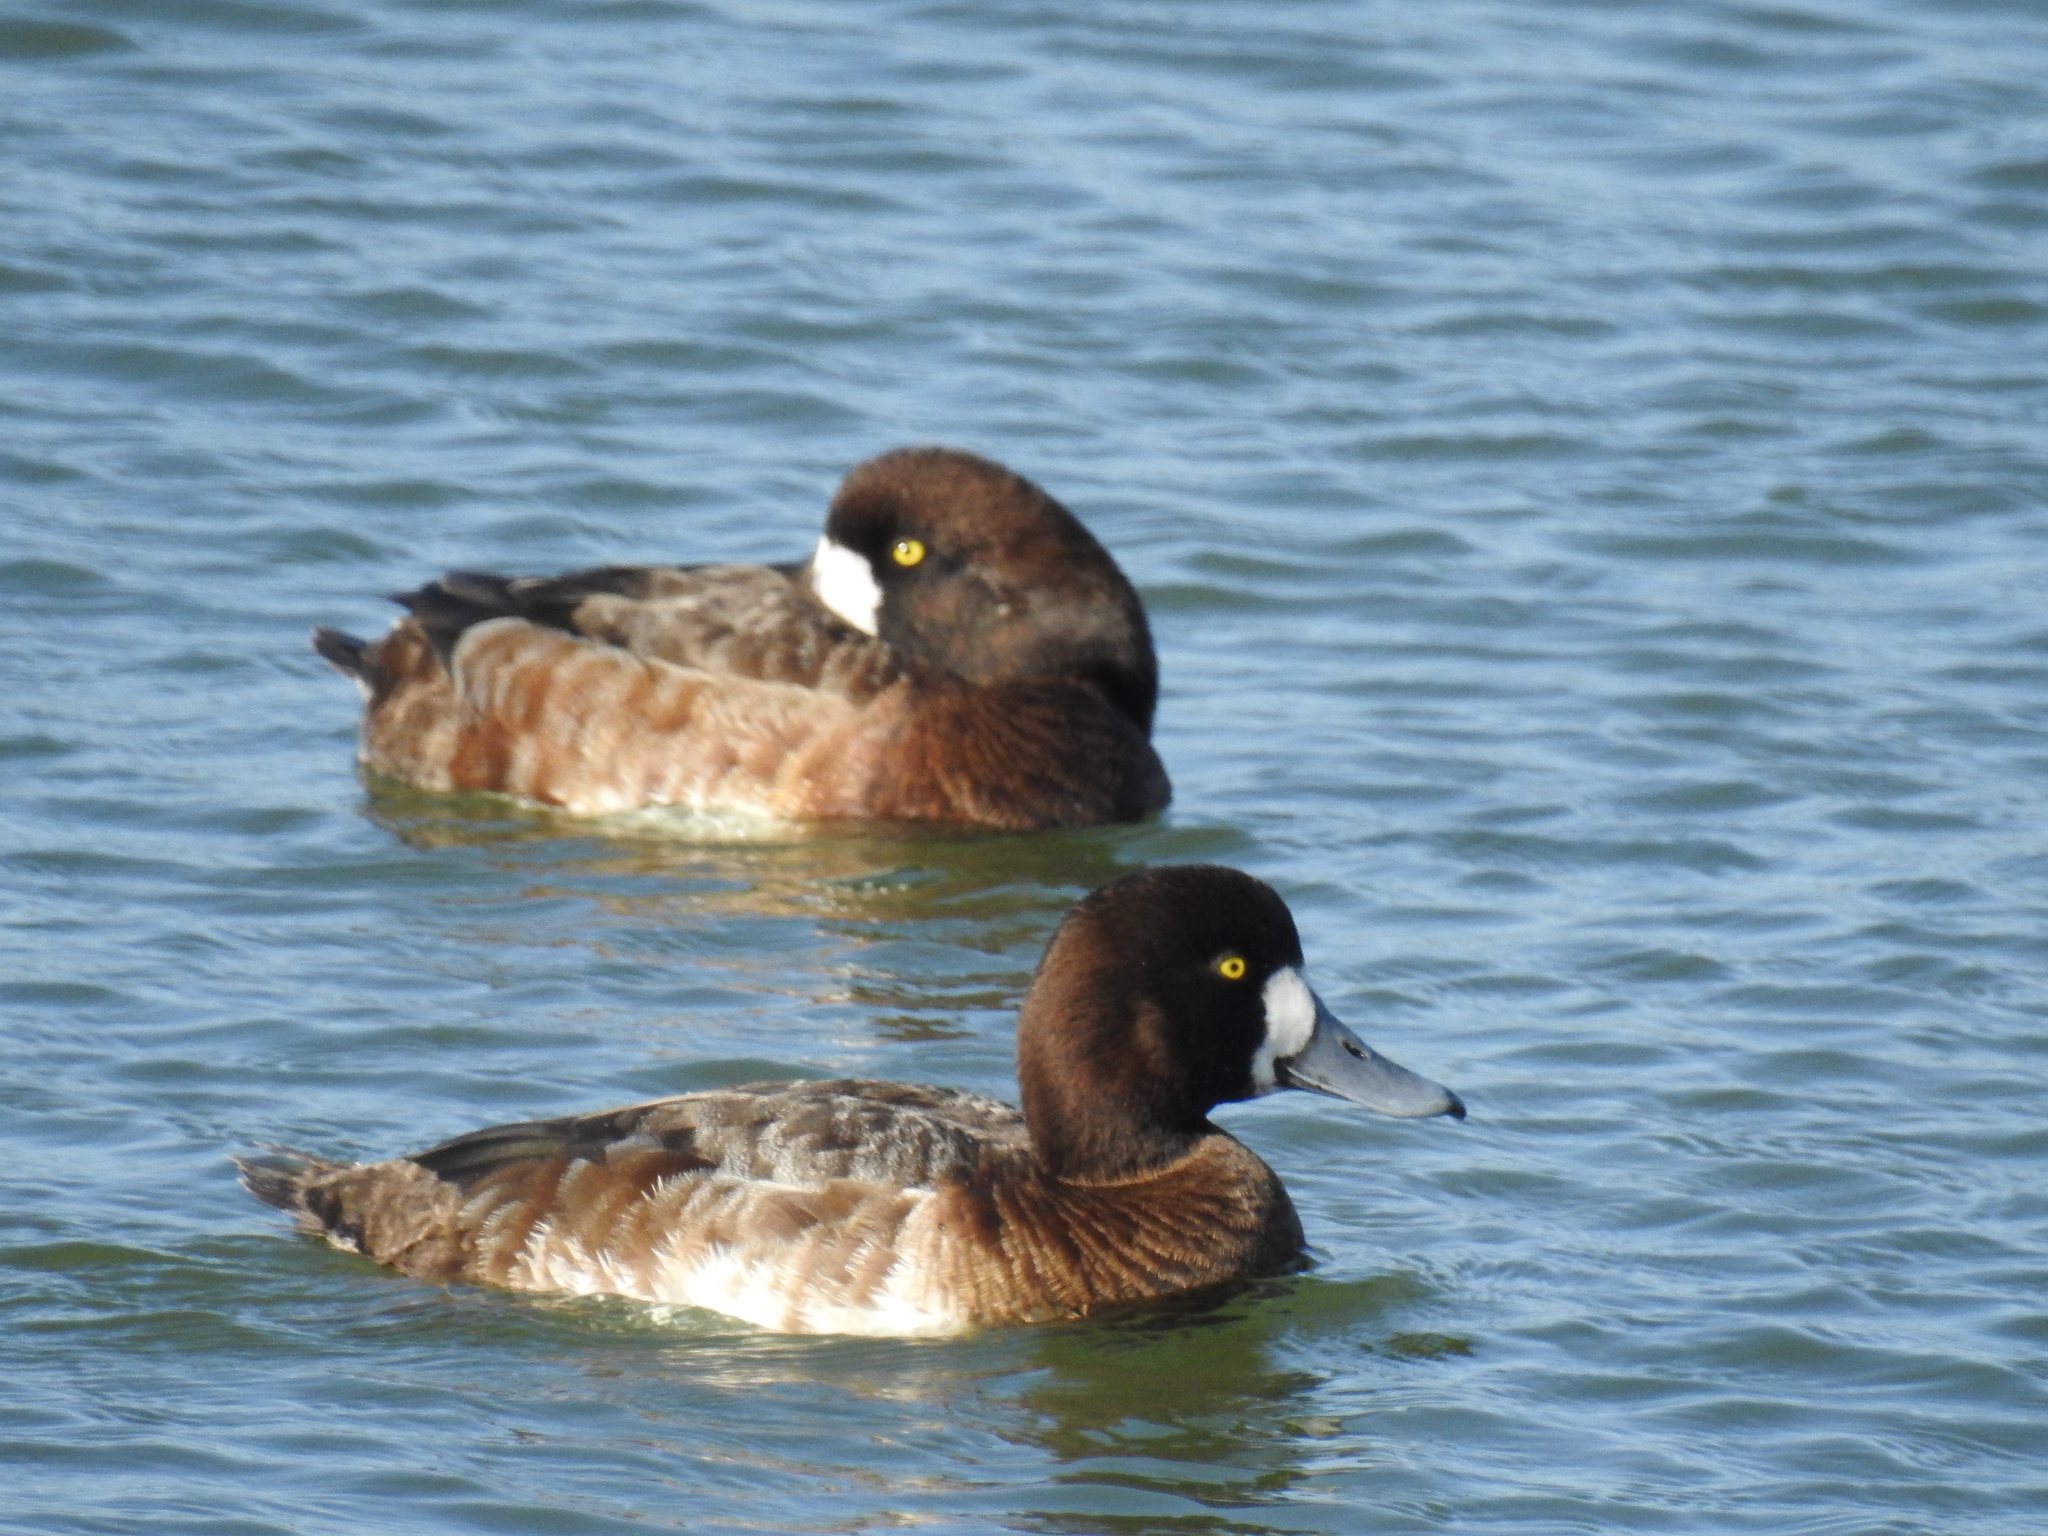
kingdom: Animalia
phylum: Chordata
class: Aves
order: Anseriformes
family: Anatidae
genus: Aythya
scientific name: Aythya marila
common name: Greater scaup
